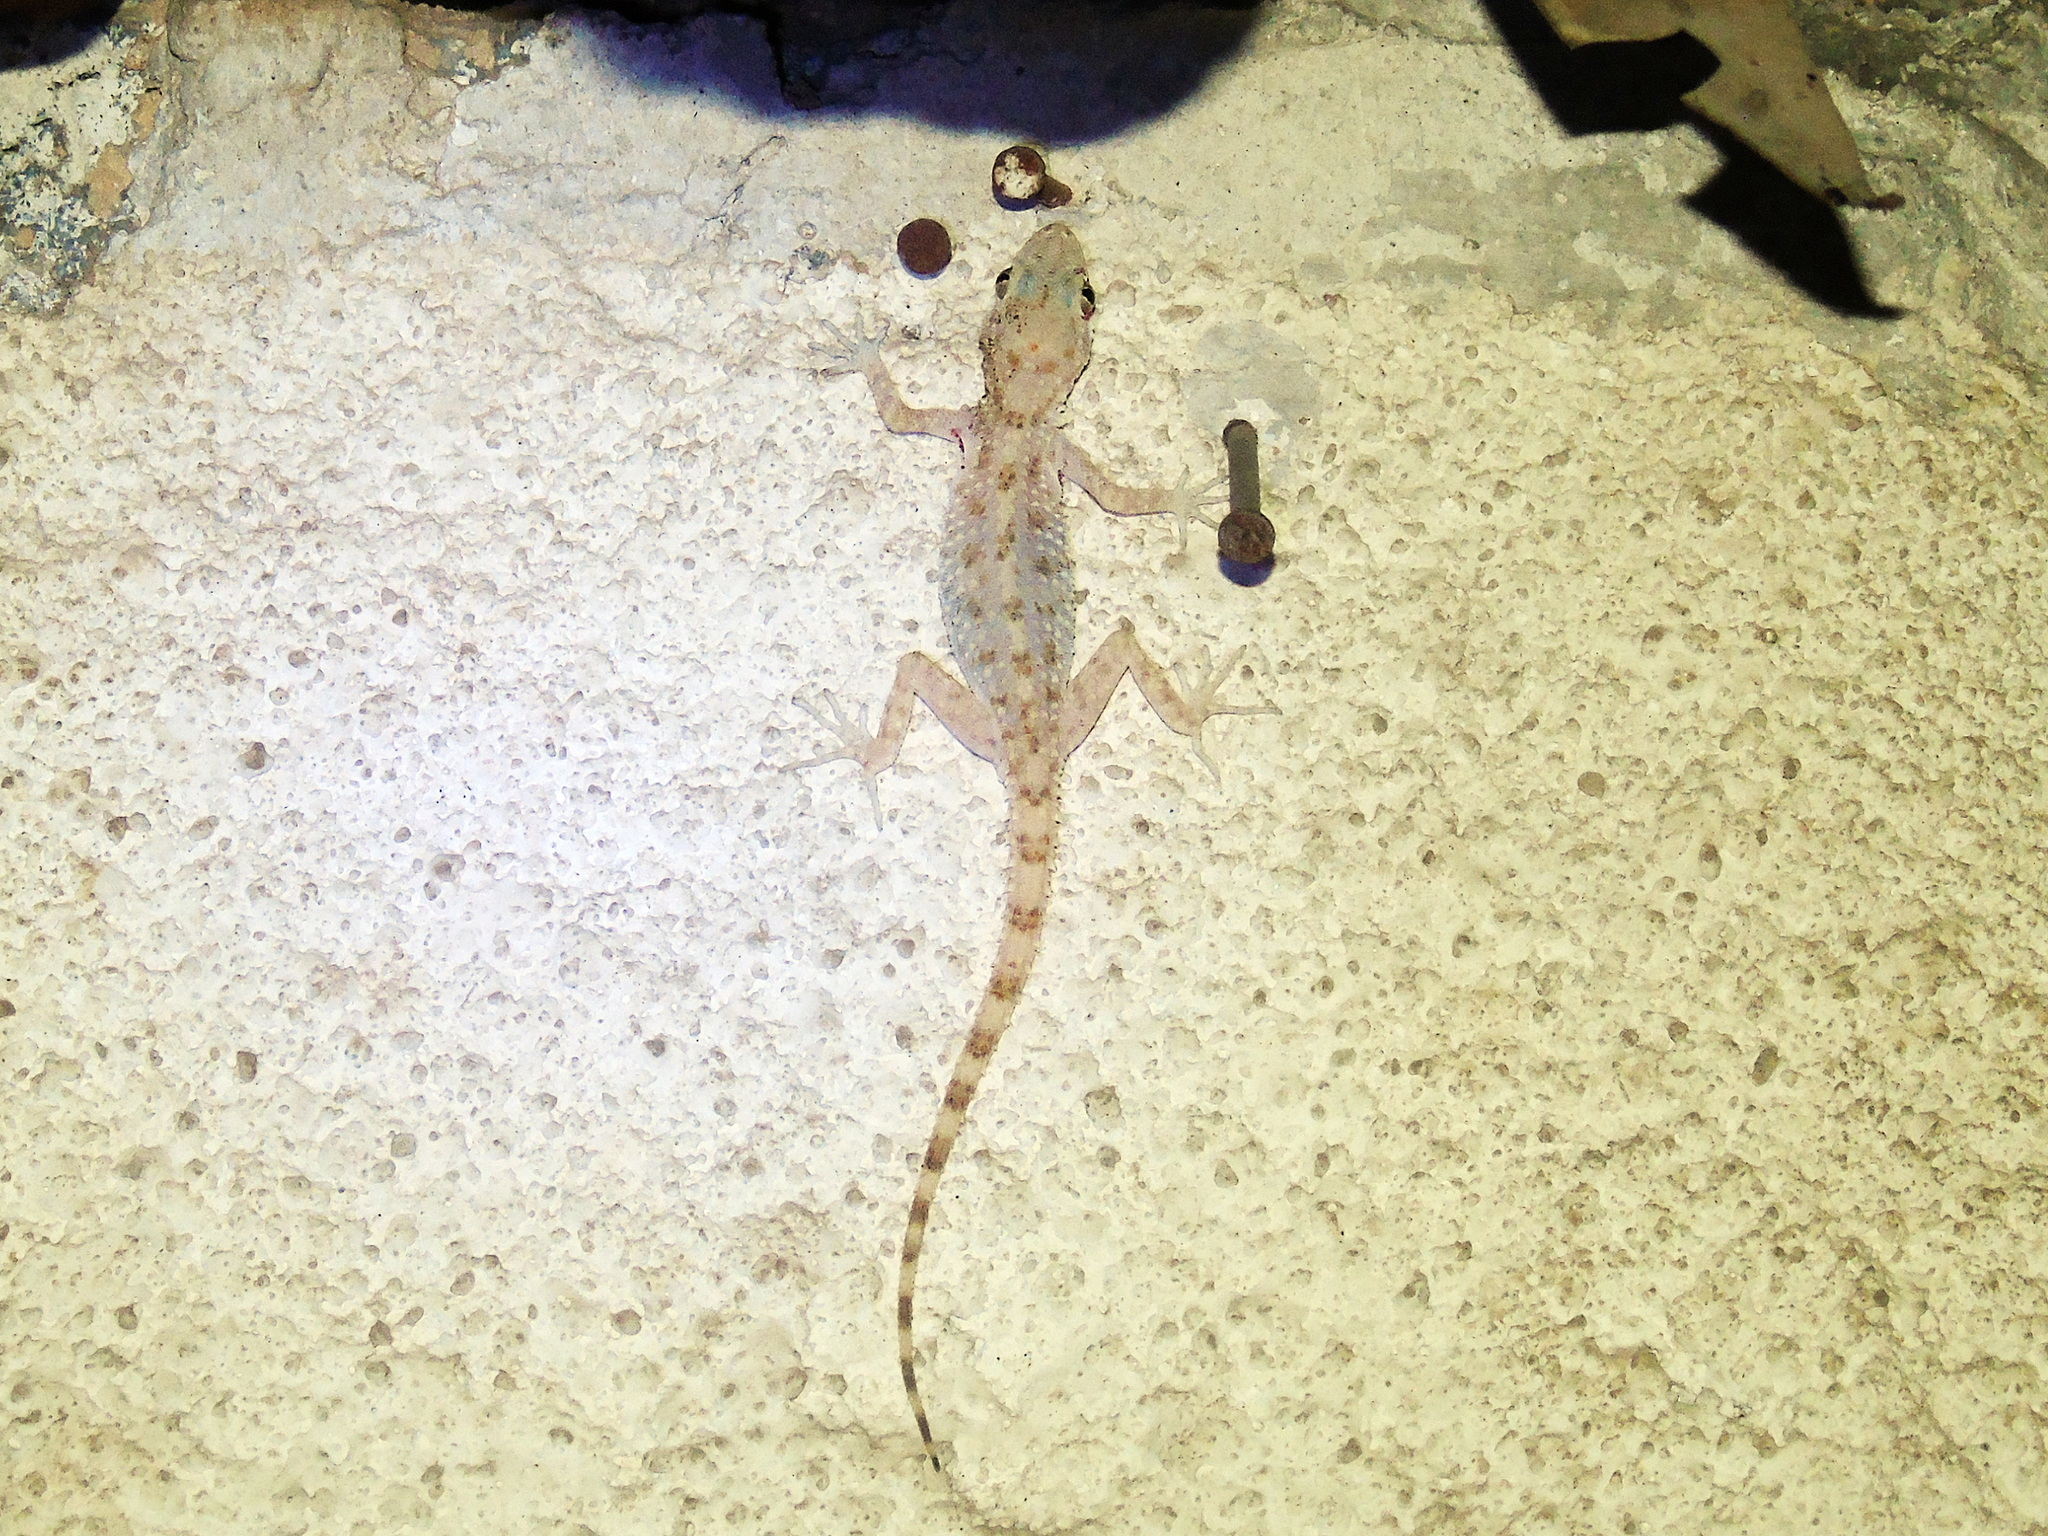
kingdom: Animalia
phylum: Chordata
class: Squamata
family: Gekkonidae
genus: Cyrtopodion
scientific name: Cyrtopodion scabrum
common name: Rough-tailed gecko
